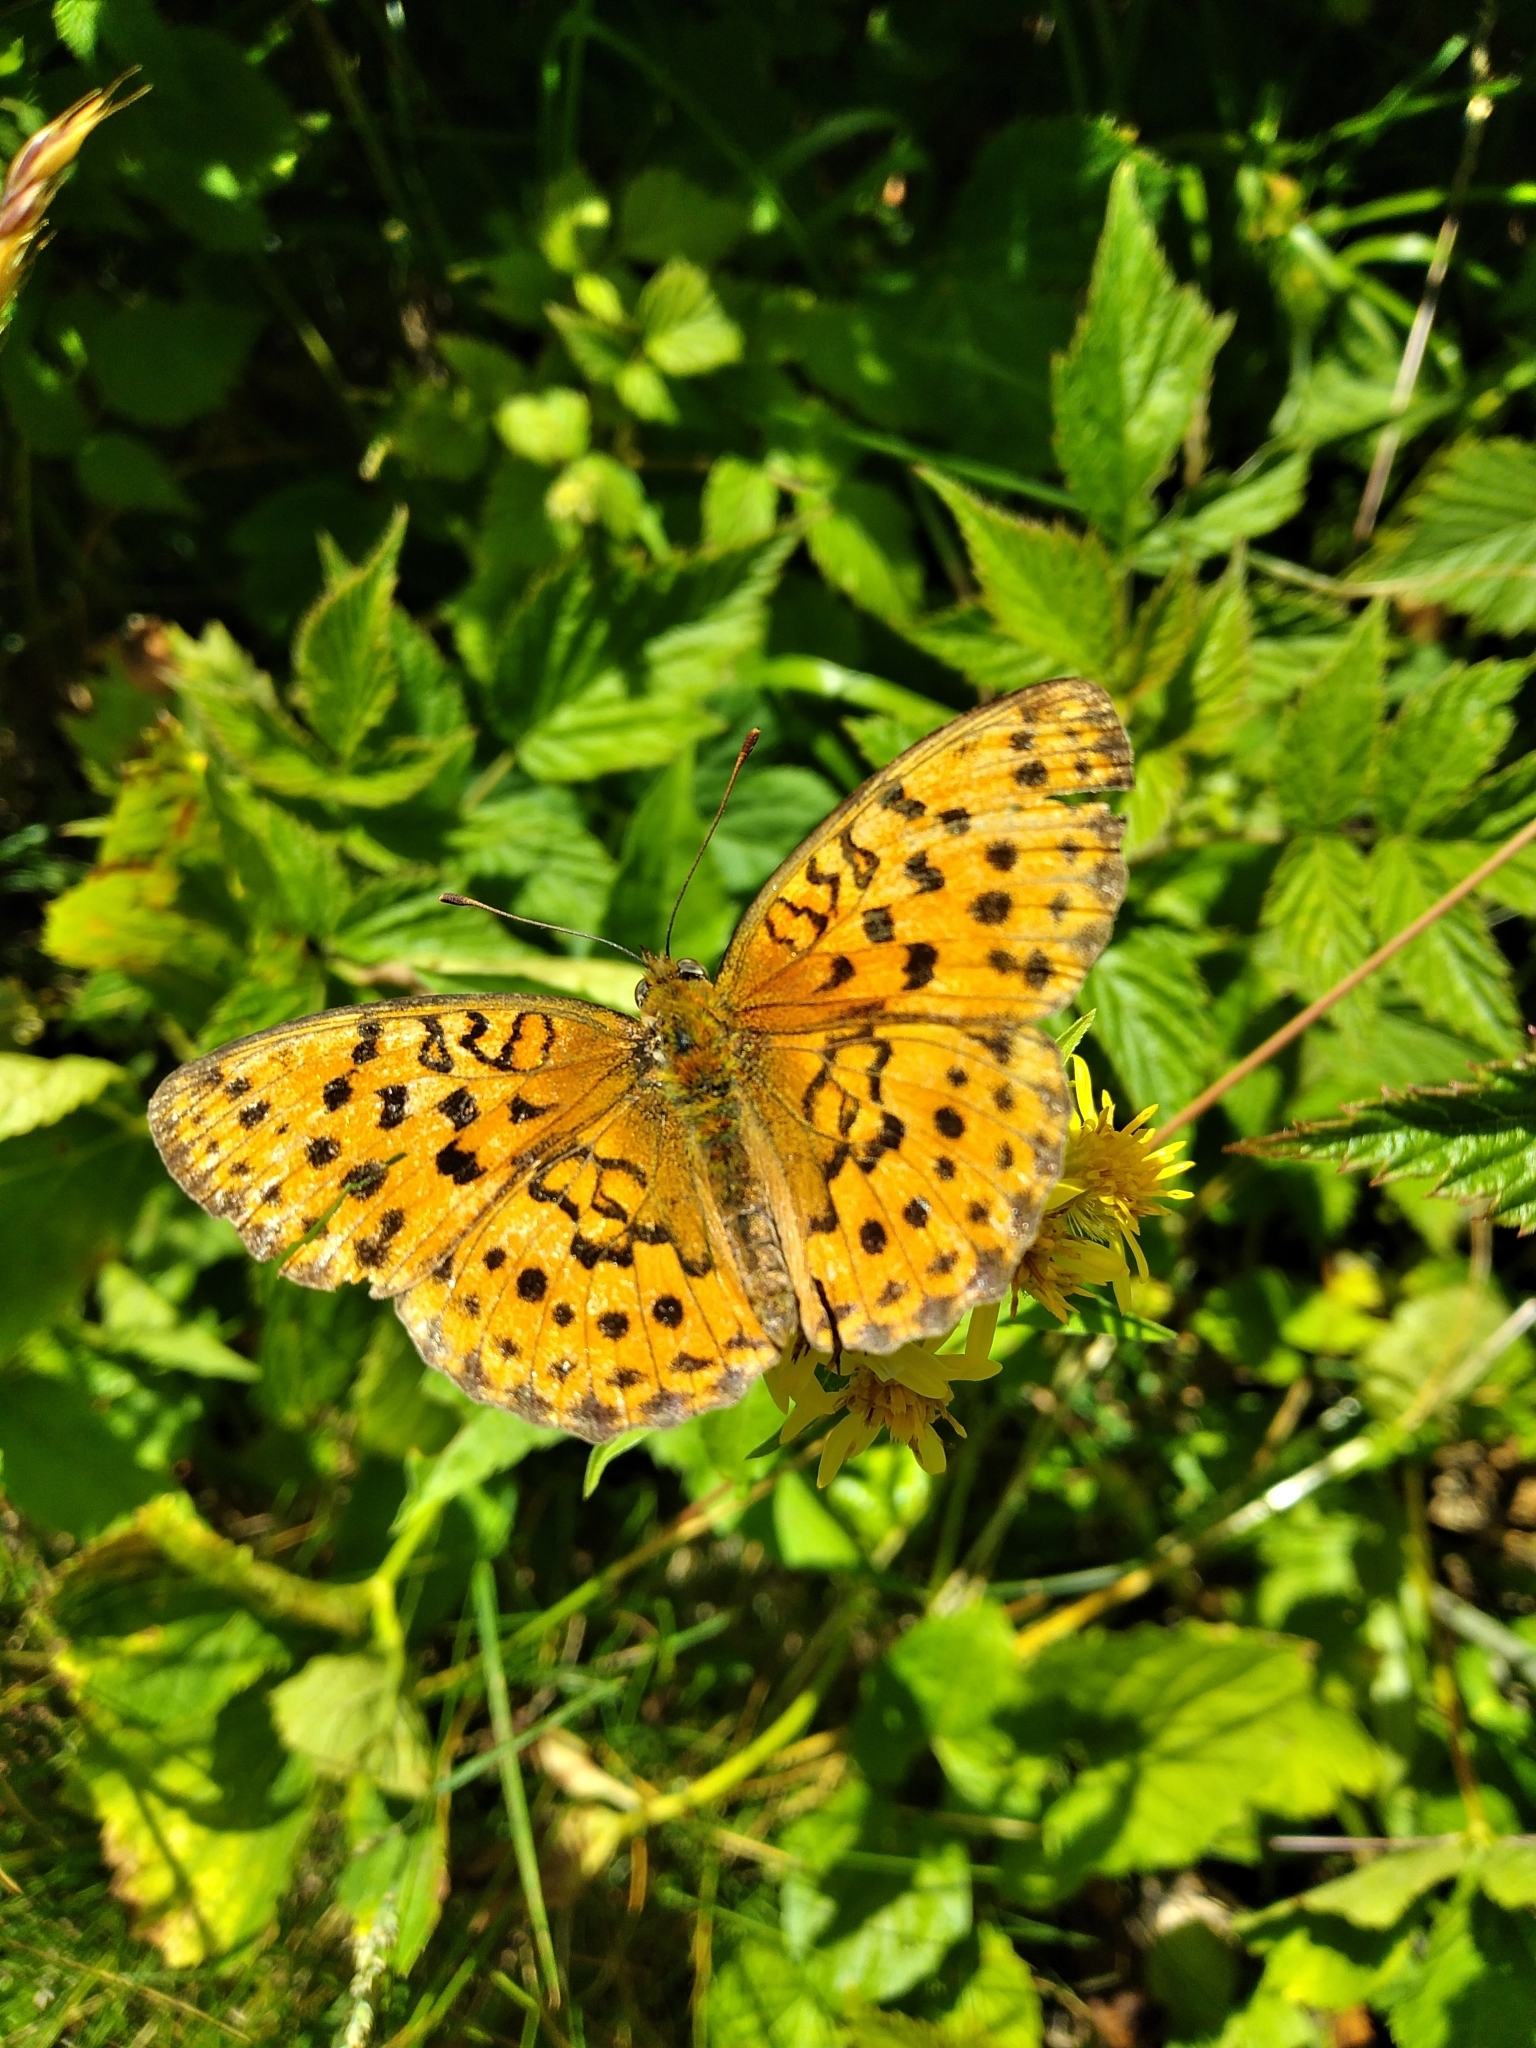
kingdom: Animalia
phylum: Arthropoda
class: Insecta
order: Lepidoptera
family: Nymphalidae
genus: Brenthis
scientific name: Brenthis daphne
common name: Marbled fritillary
